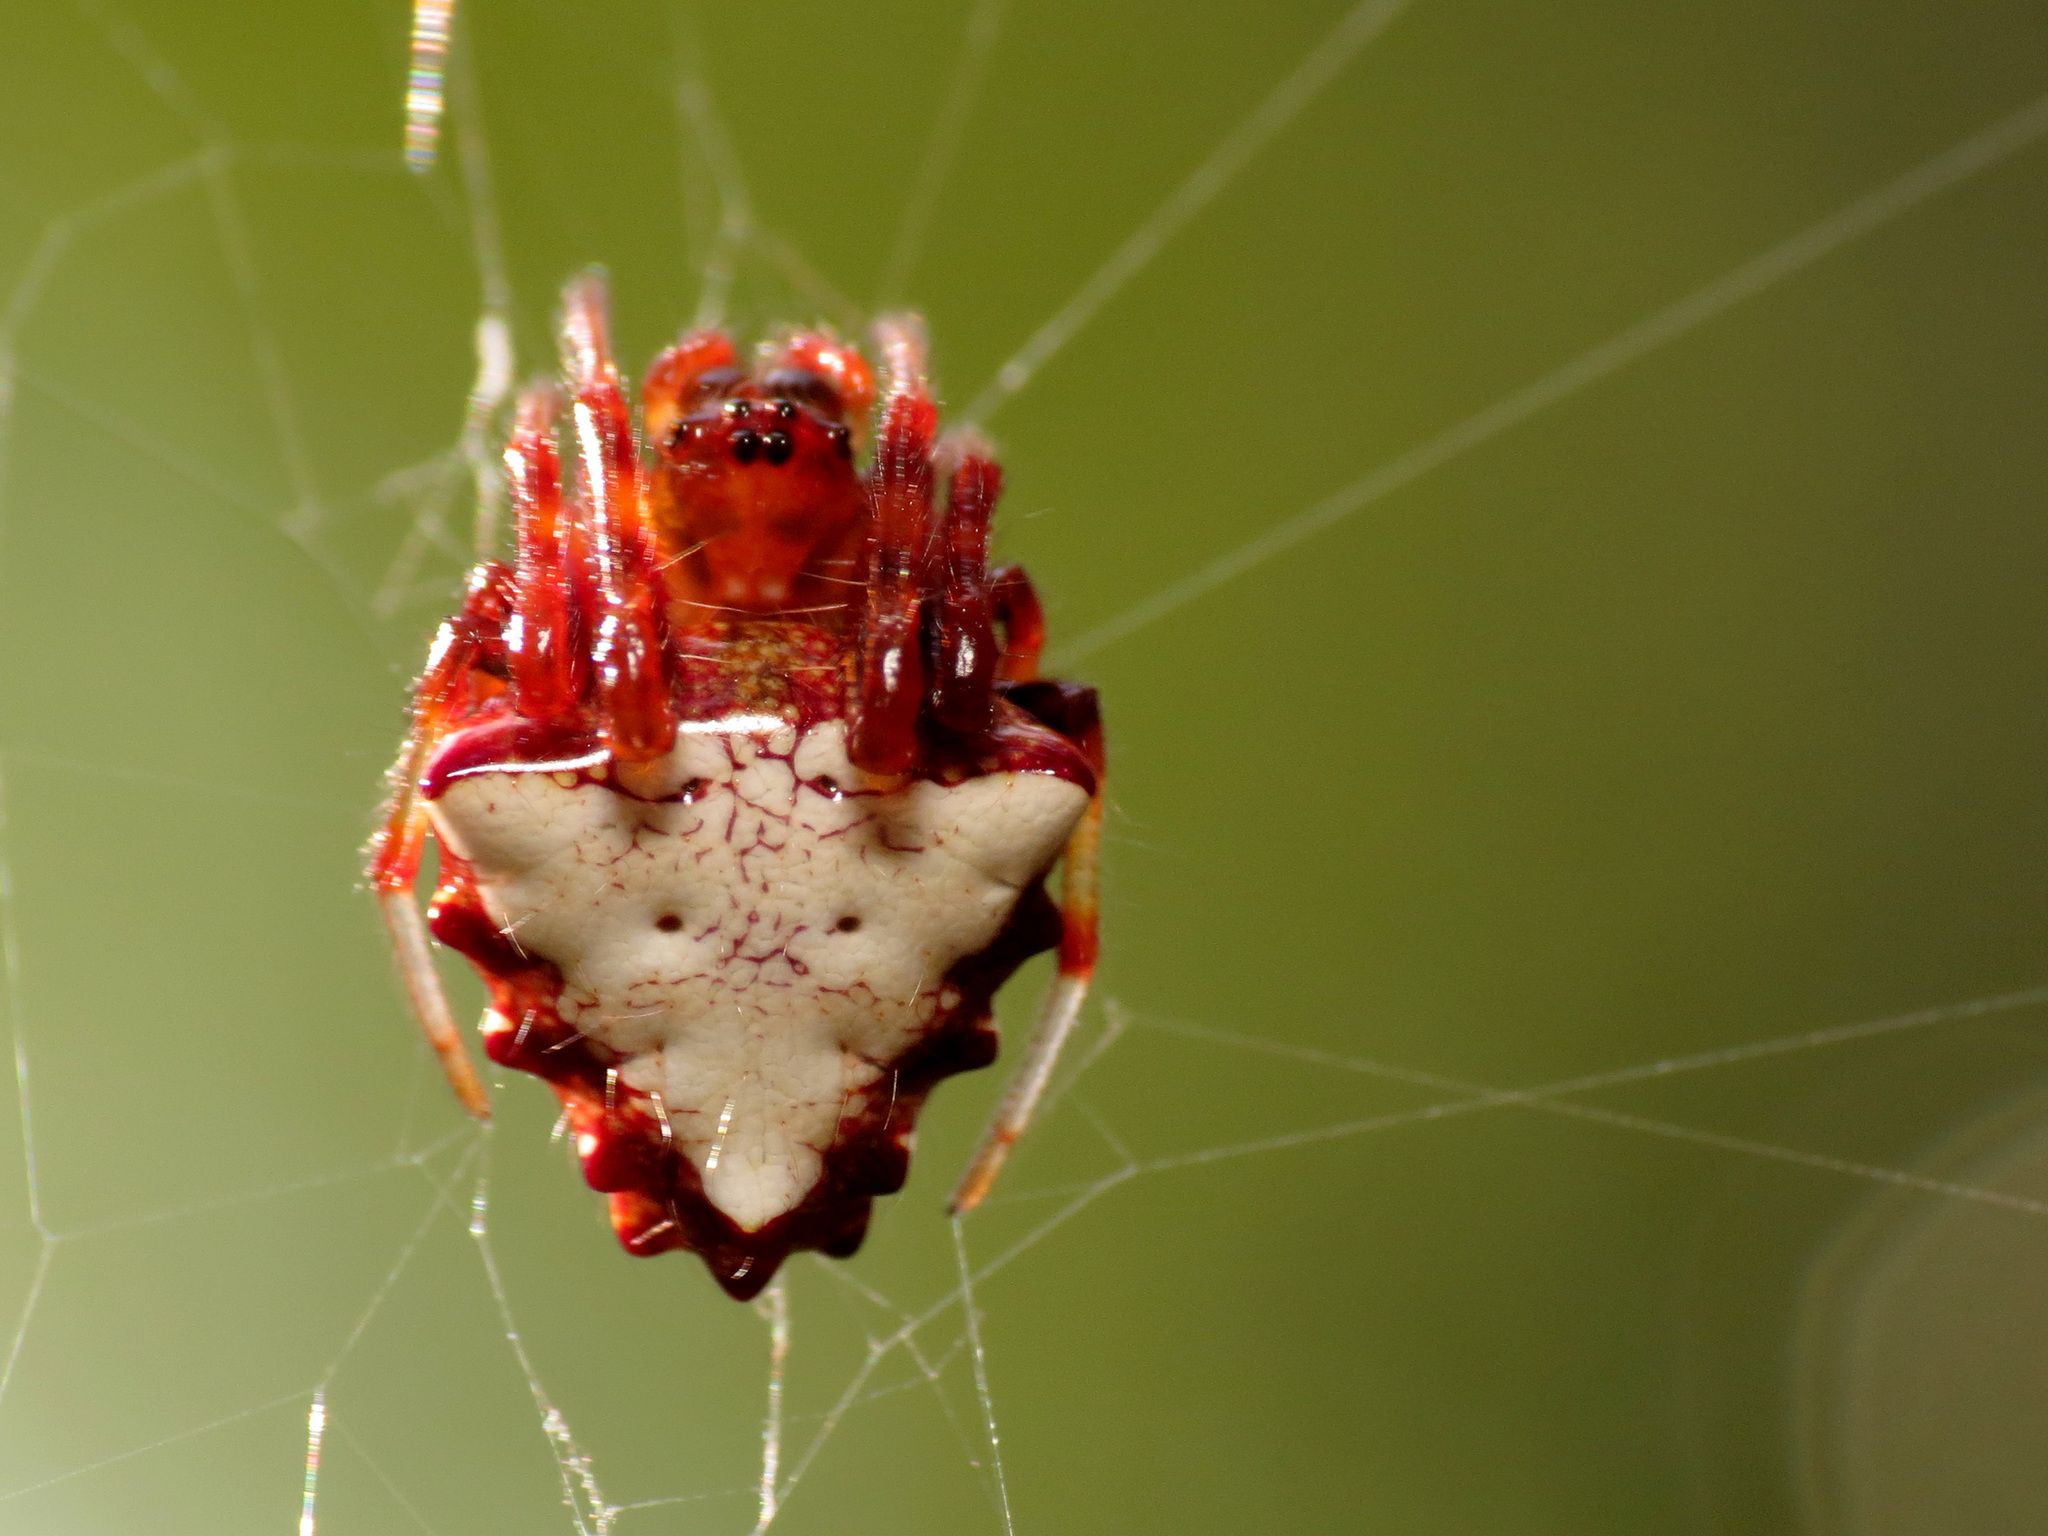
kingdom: Animalia
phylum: Arthropoda
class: Arachnida
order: Araneae
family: Araneidae
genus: Verrucosa
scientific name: Verrucosa arenata
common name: Orb weavers
